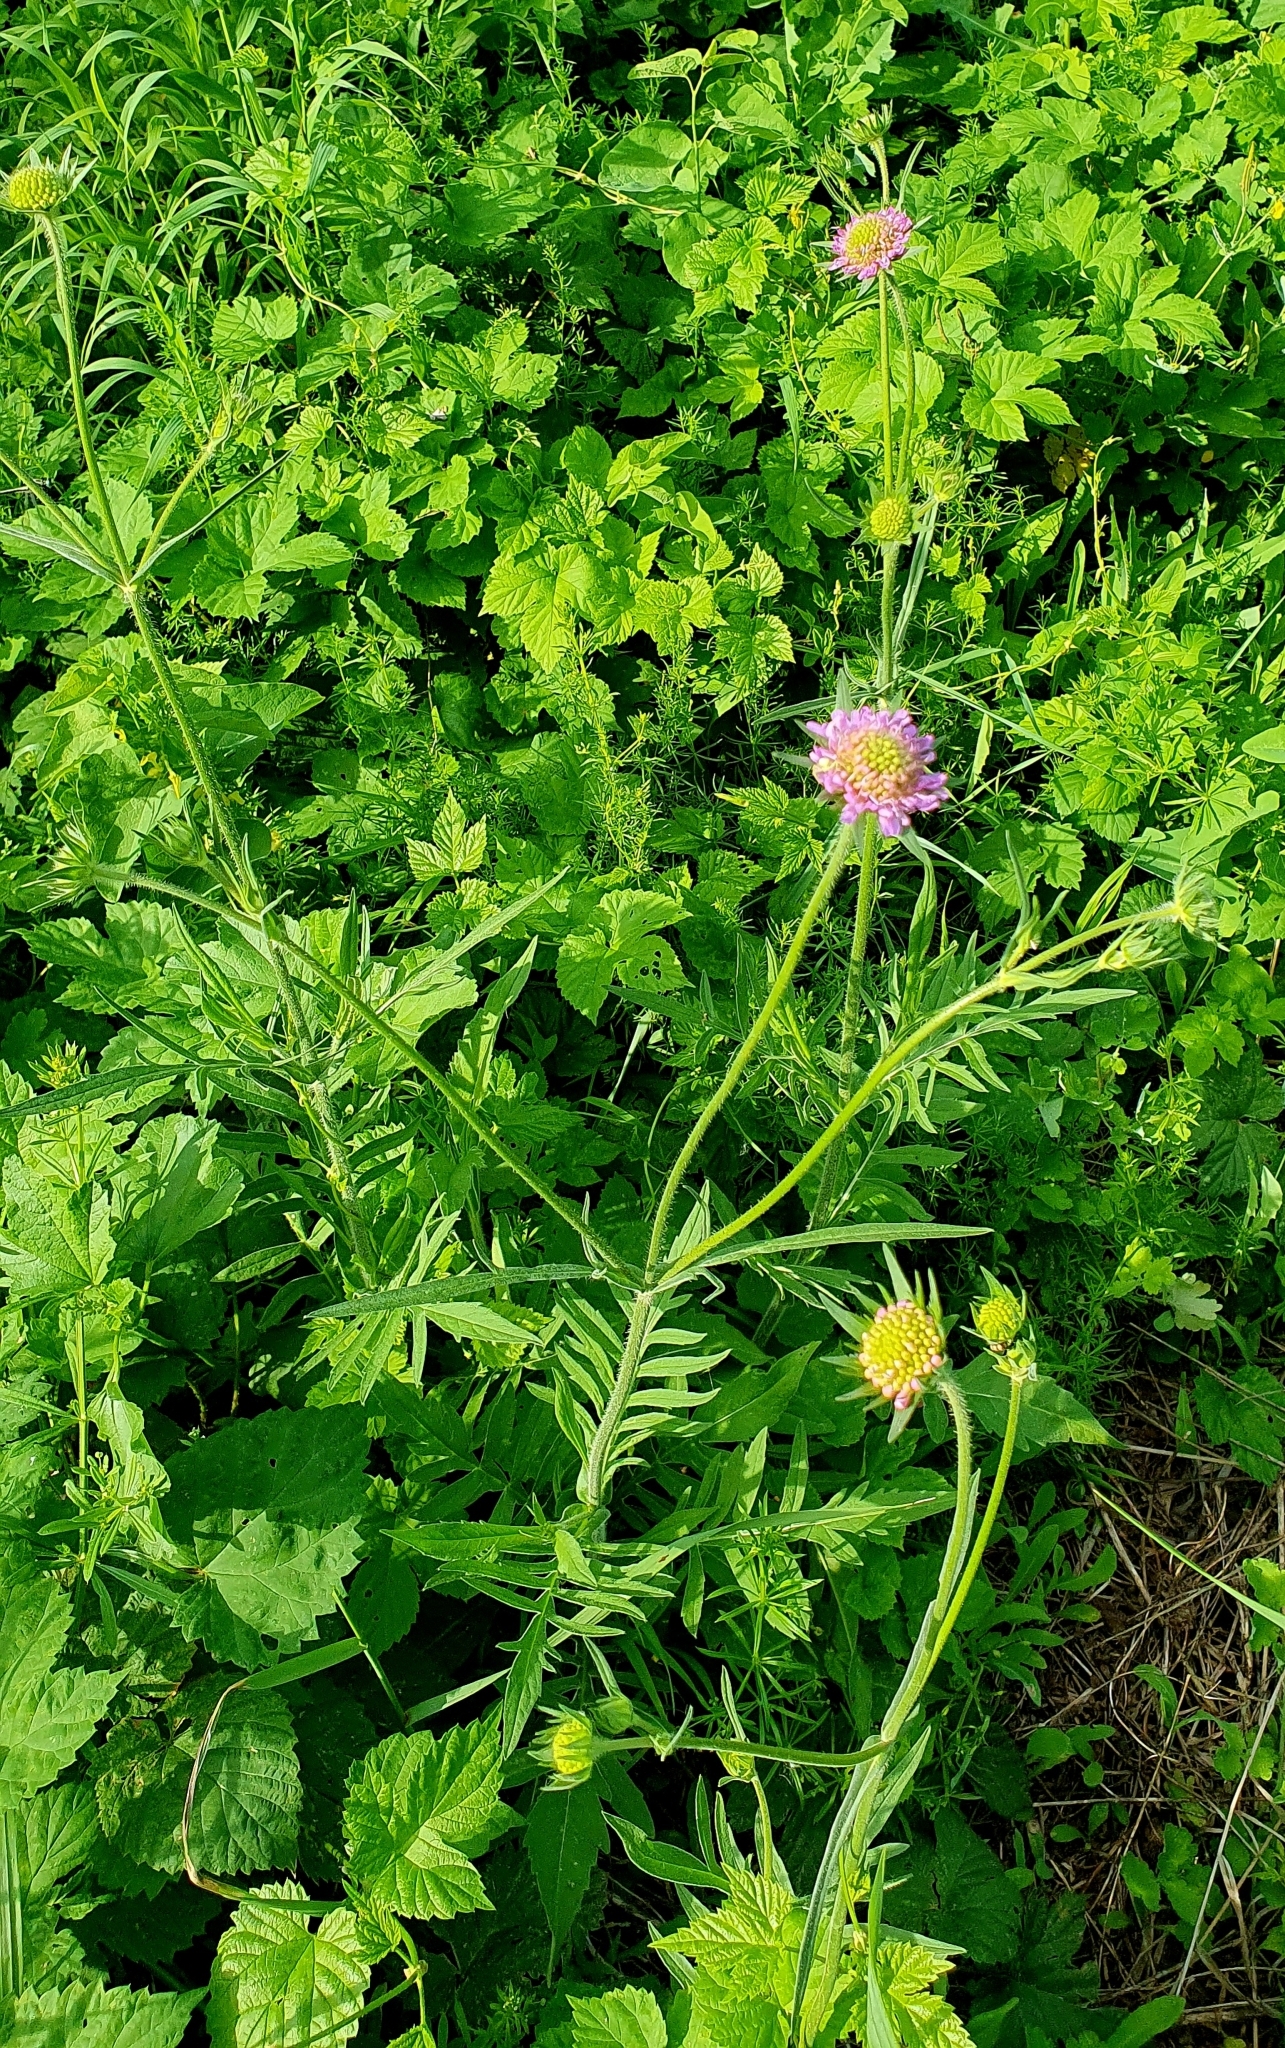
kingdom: Plantae
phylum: Tracheophyta
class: Magnoliopsida
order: Dipsacales
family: Caprifoliaceae
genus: Knautia
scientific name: Knautia arvensis
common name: Field scabiosa
